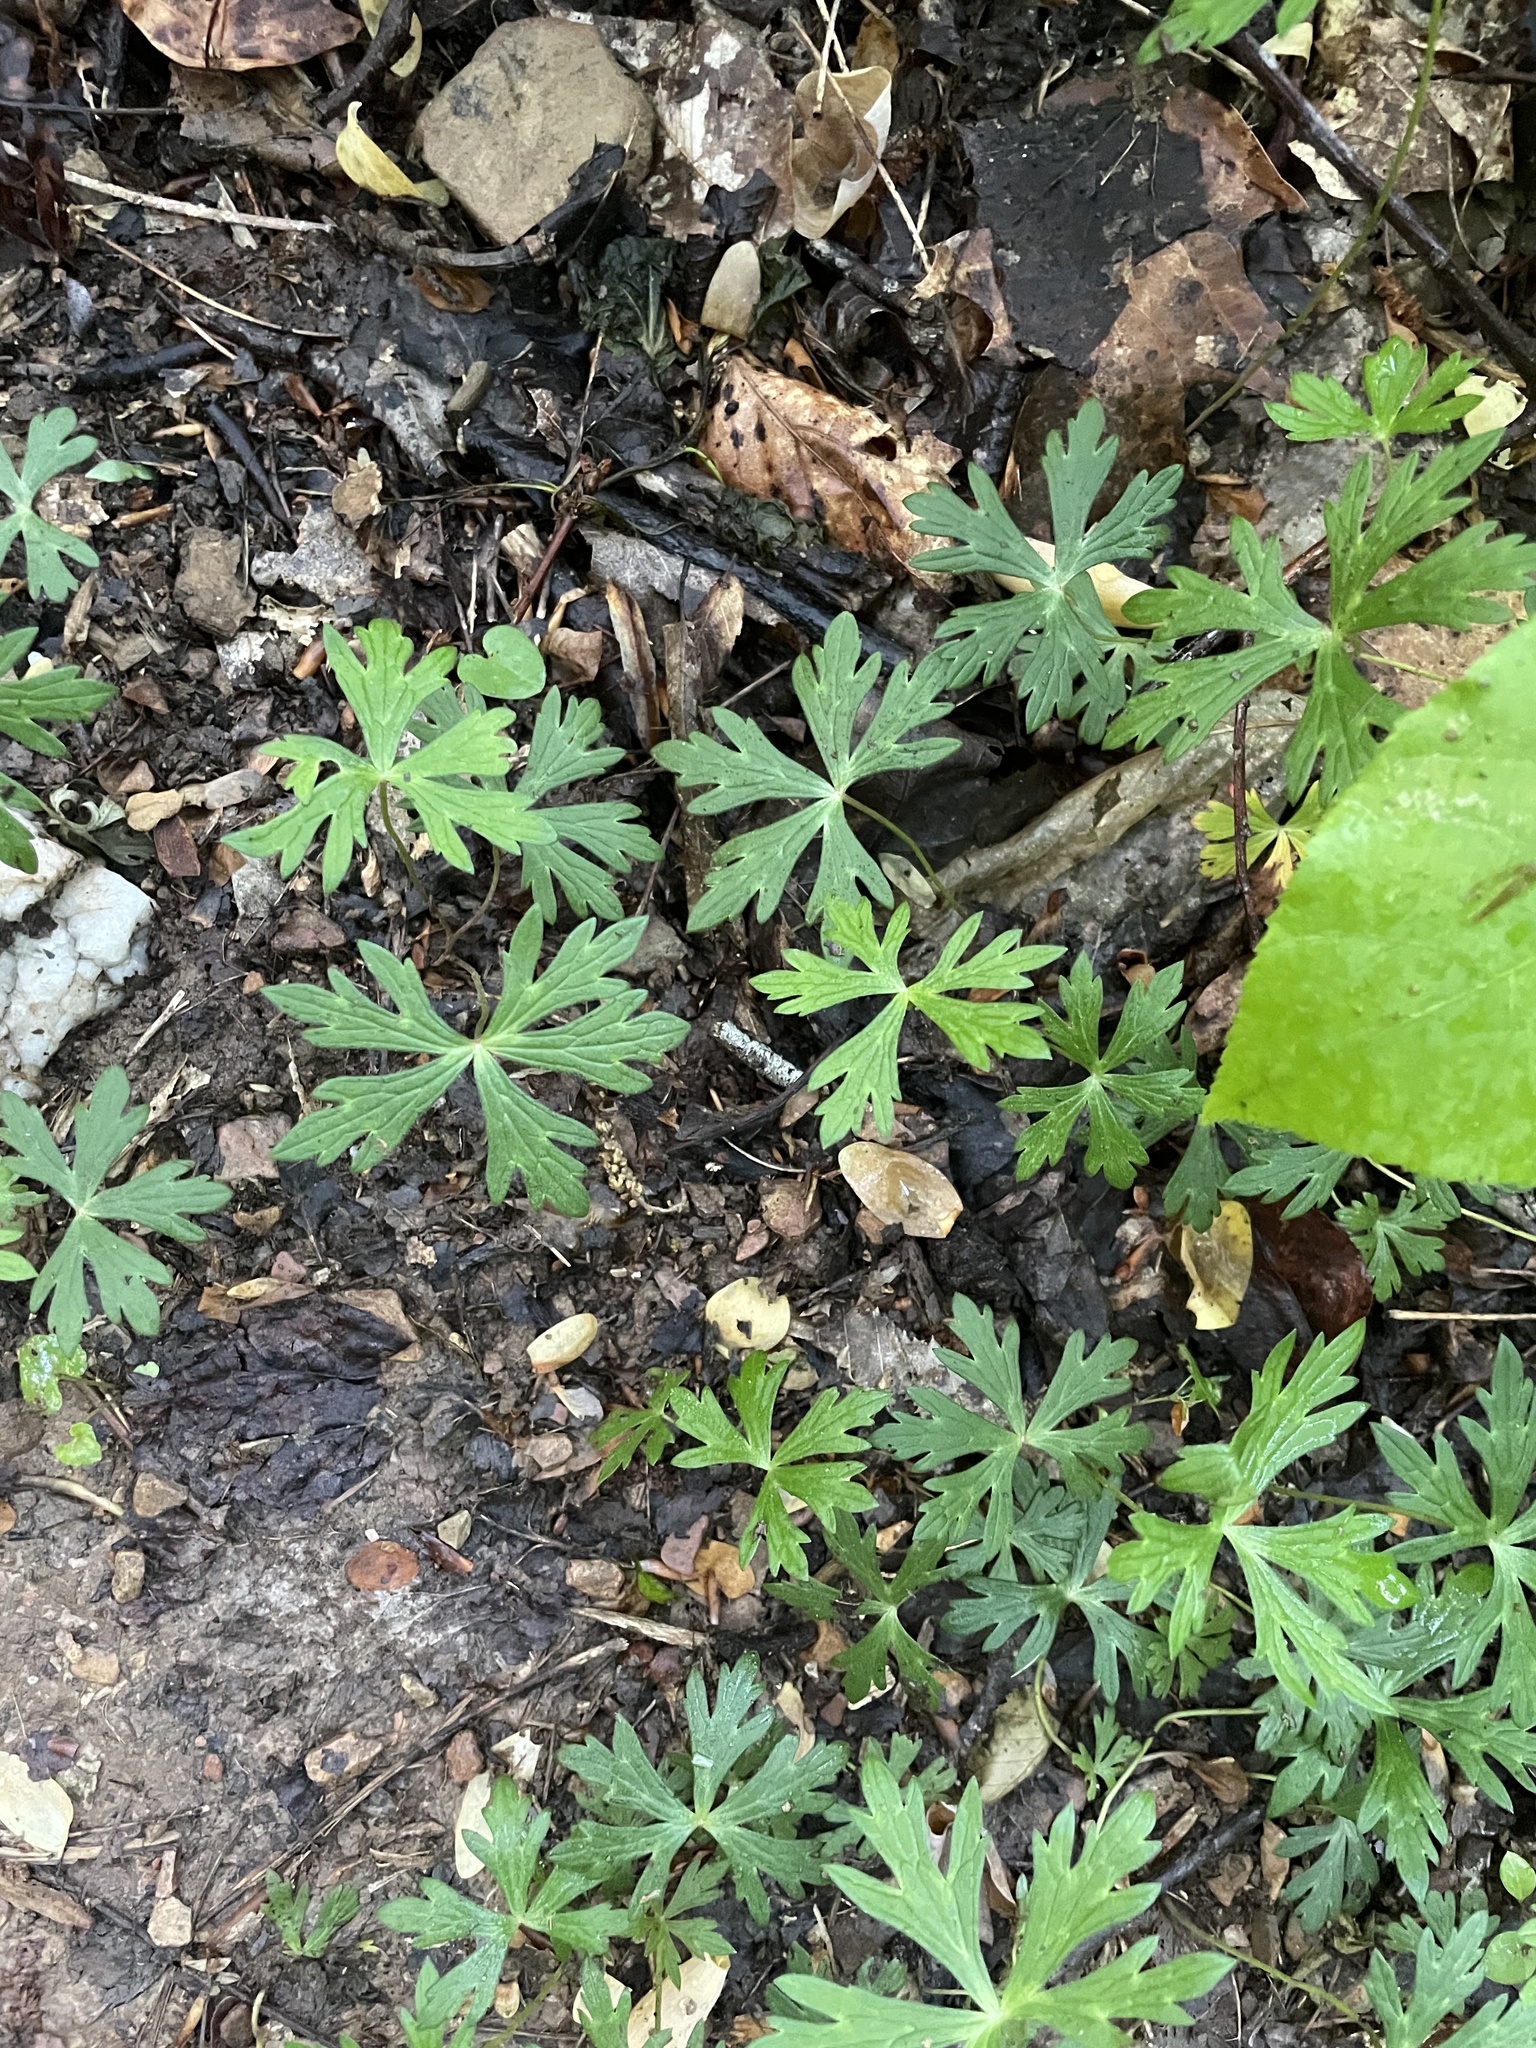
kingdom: Plantae
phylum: Tracheophyta
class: Magnoliopsida
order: Geraniales
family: Geraniaceae
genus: Geranium
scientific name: Geranium maculatum
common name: Spotted geranium
